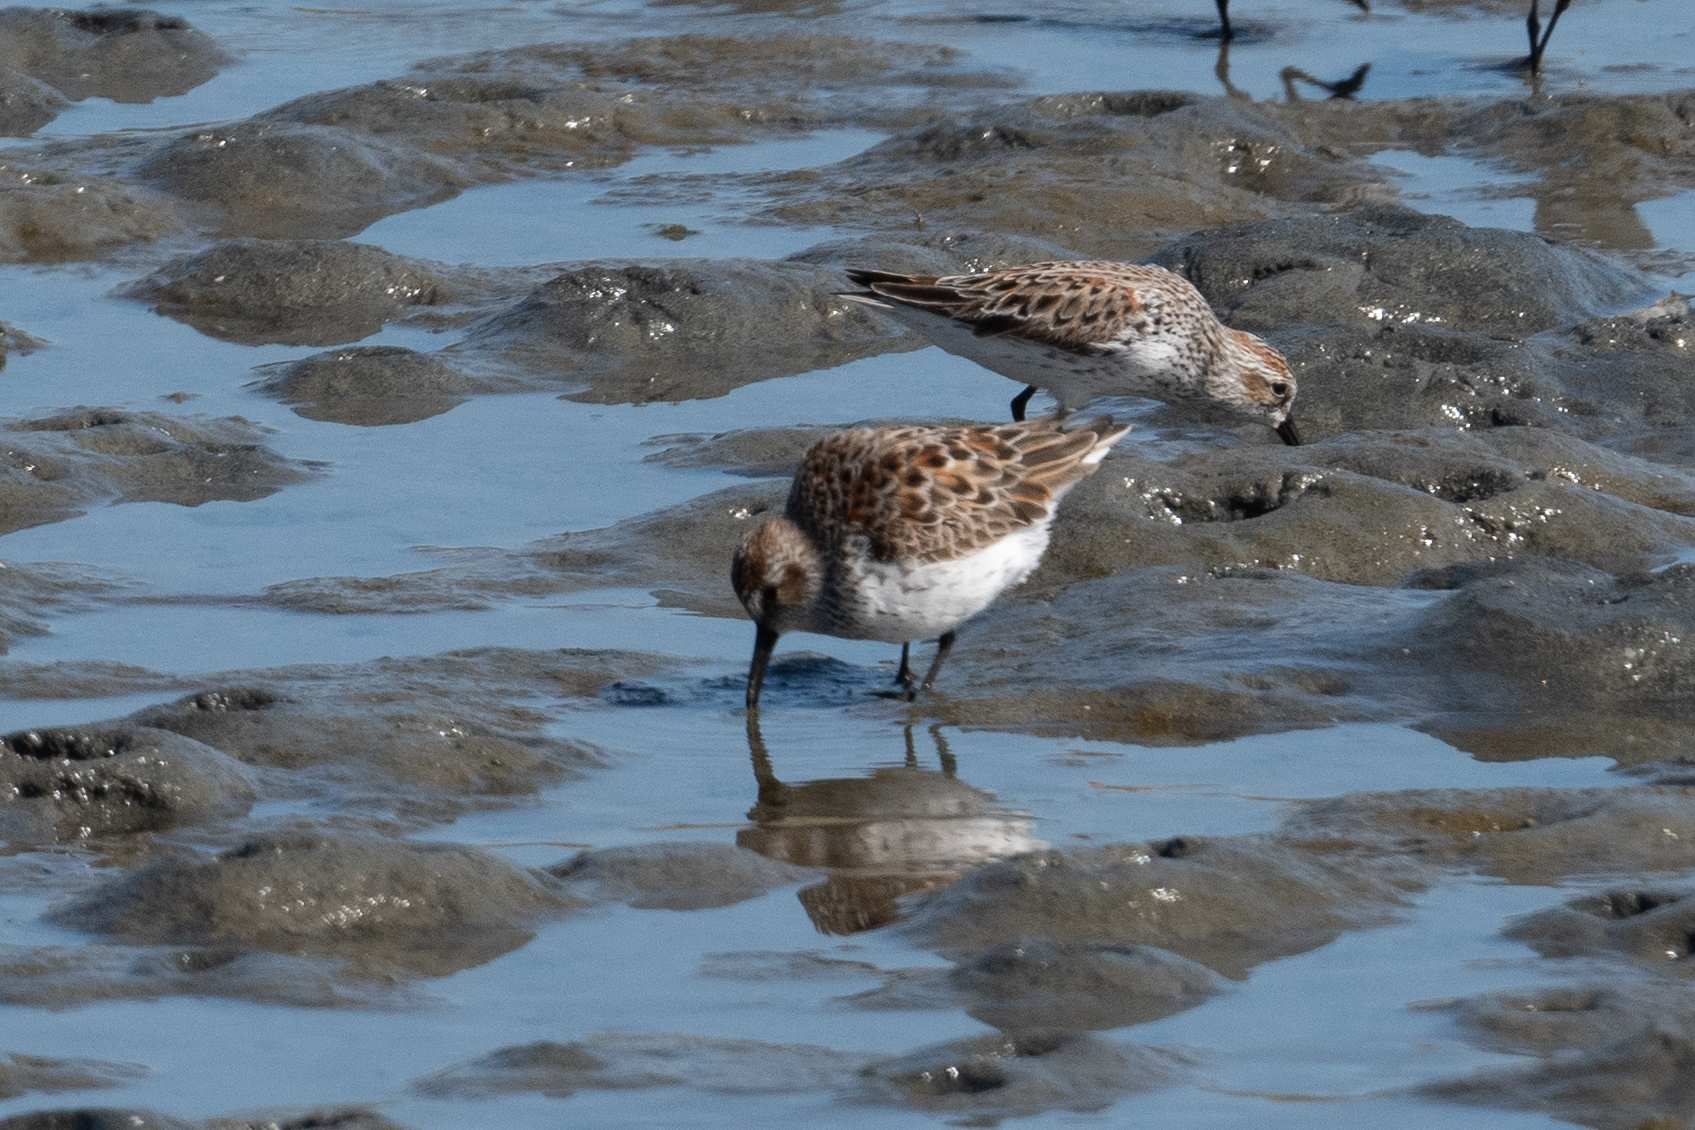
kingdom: Animalia
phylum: Chordata
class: Aves
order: Charadriiformes
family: Scolopacidae
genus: Calidris
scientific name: Calidris mauri
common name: Western sandpiper
